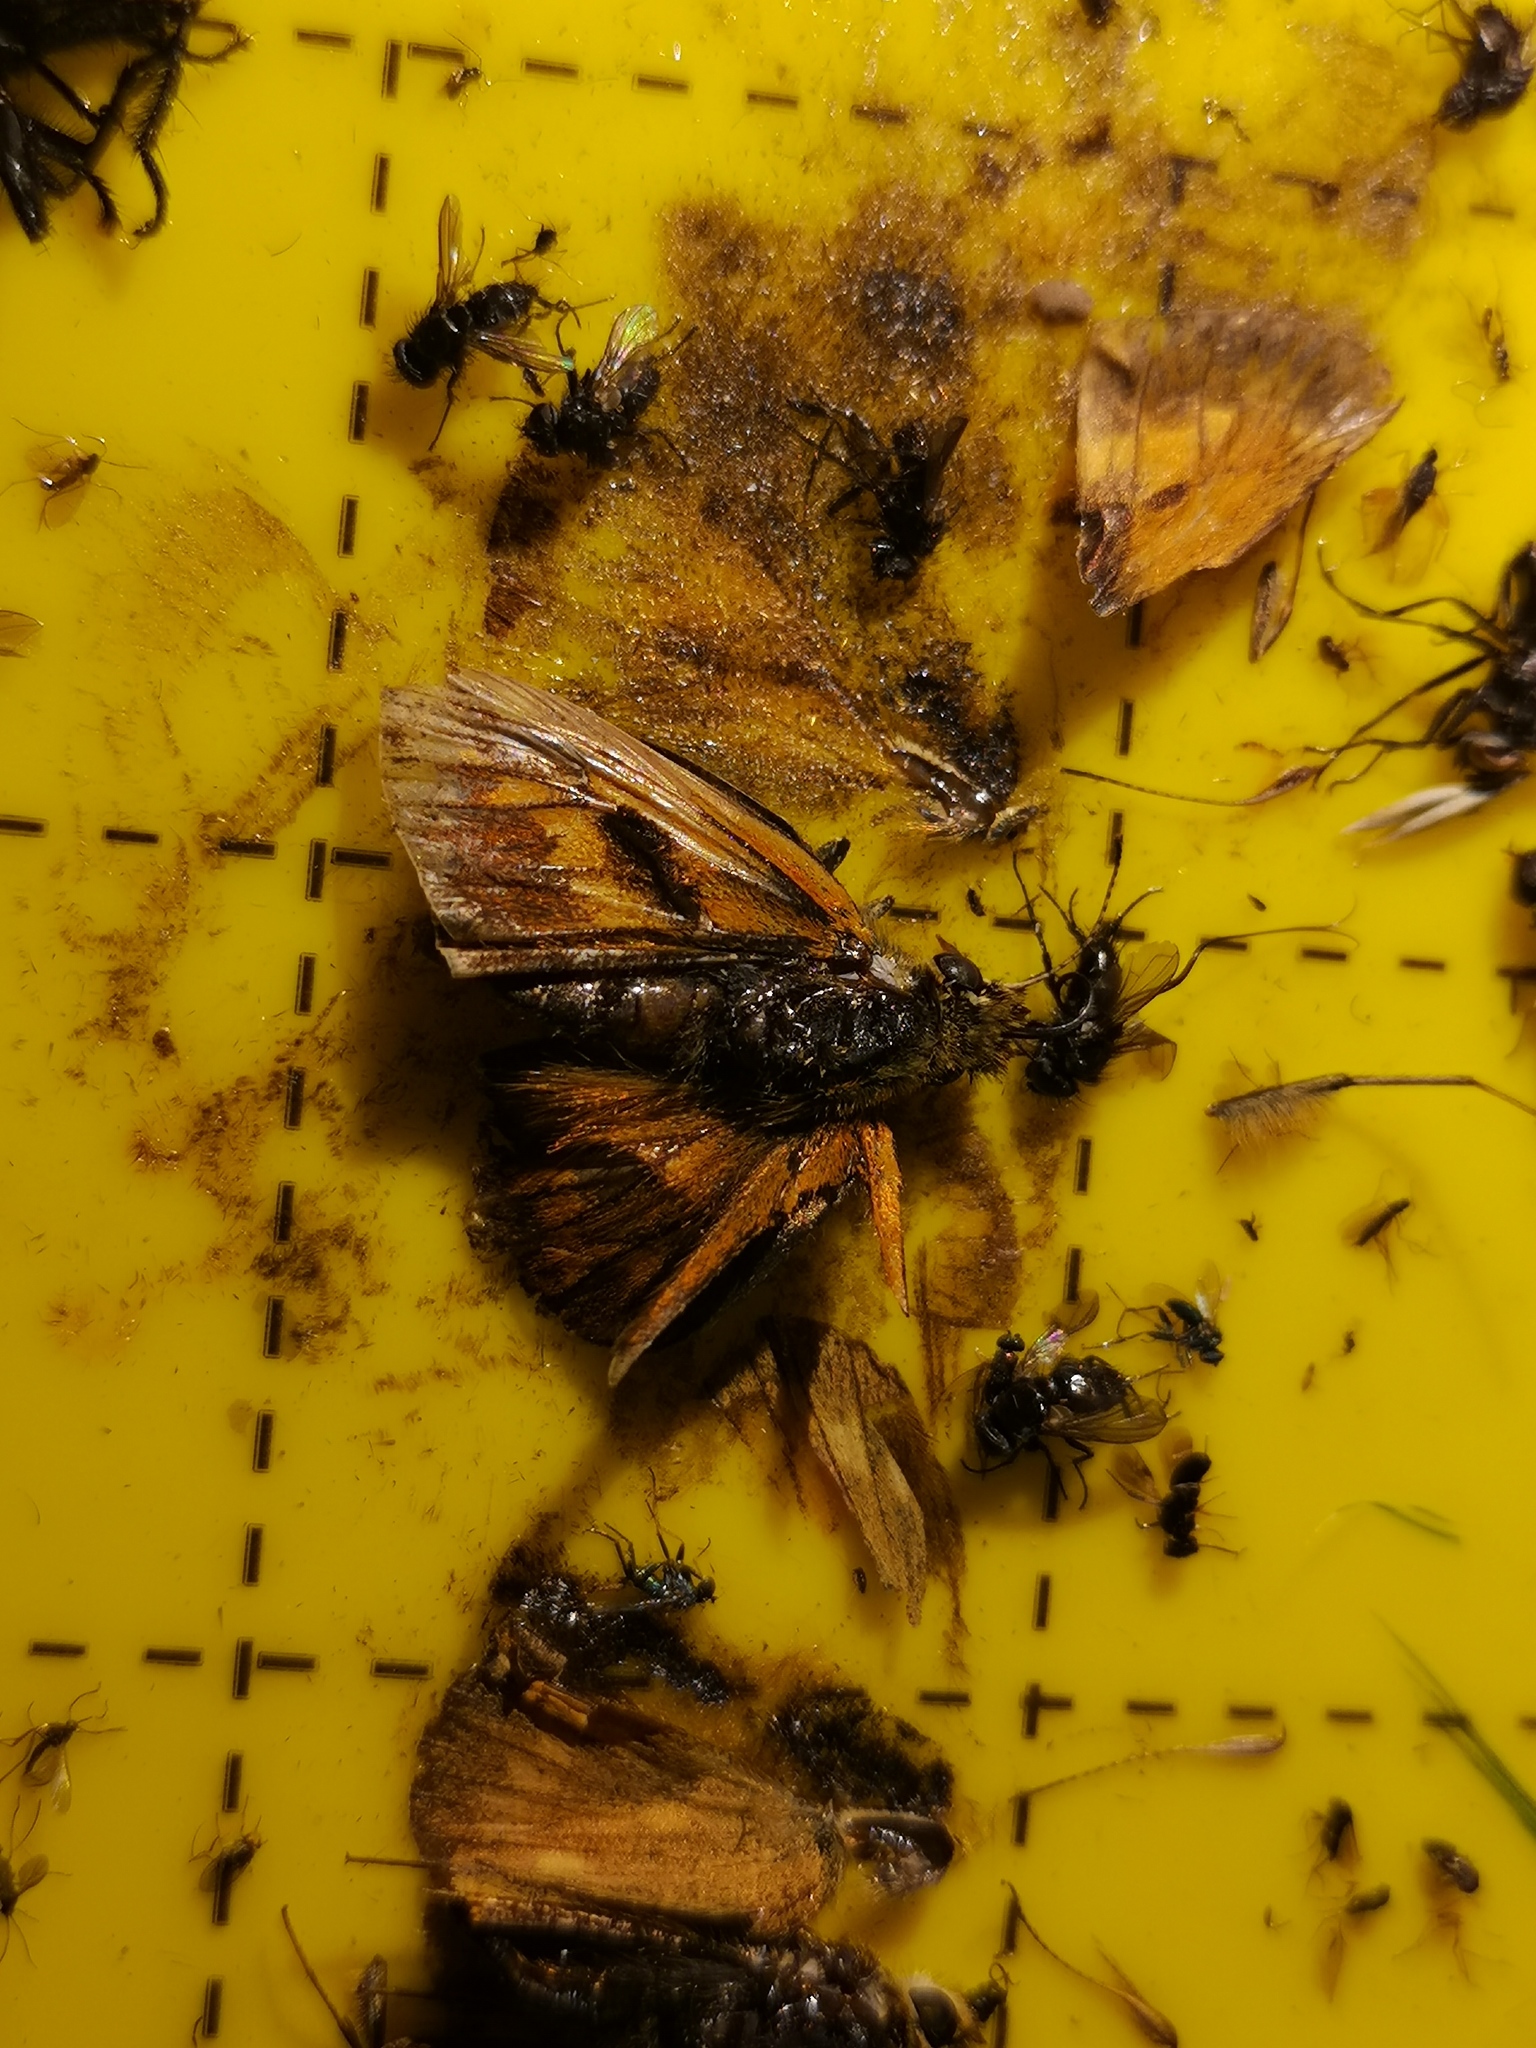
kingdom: Animalia
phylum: Arthropoda
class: Insecta
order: Lepidoptera
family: Hesperiidae
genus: Ochlodes
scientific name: Ochlodes venata
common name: Large skipper
